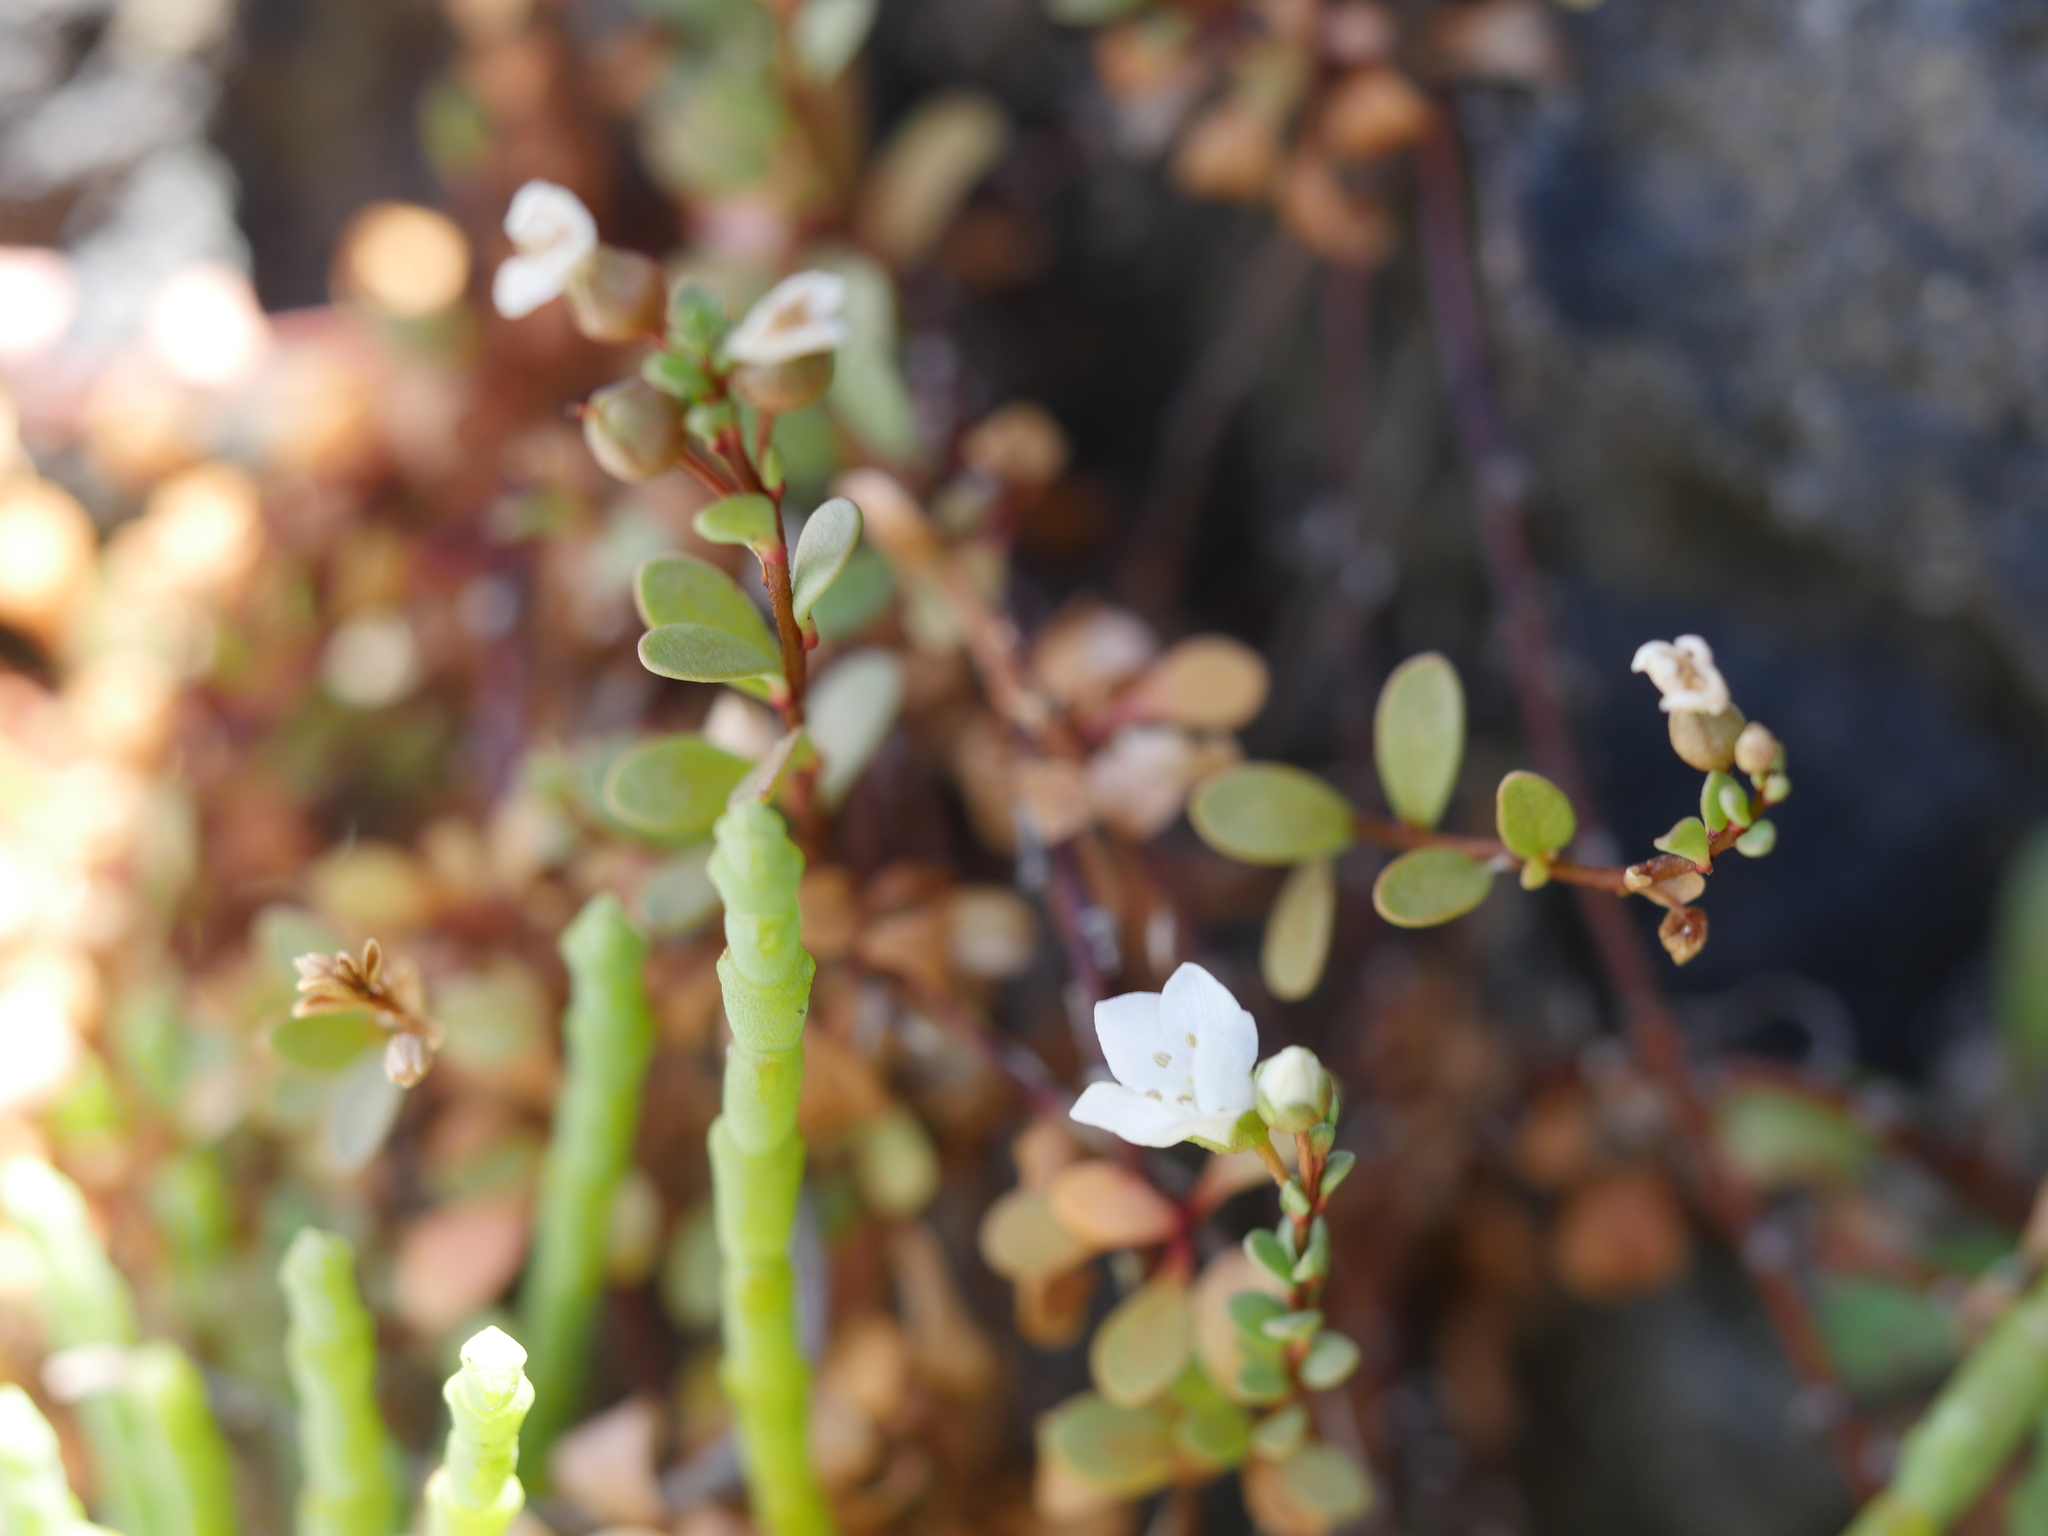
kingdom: Plantae
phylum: Tracheophyta
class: Magnoliopsida
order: Ericales
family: Primulaceae
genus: Samolus
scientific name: Samolus repens
